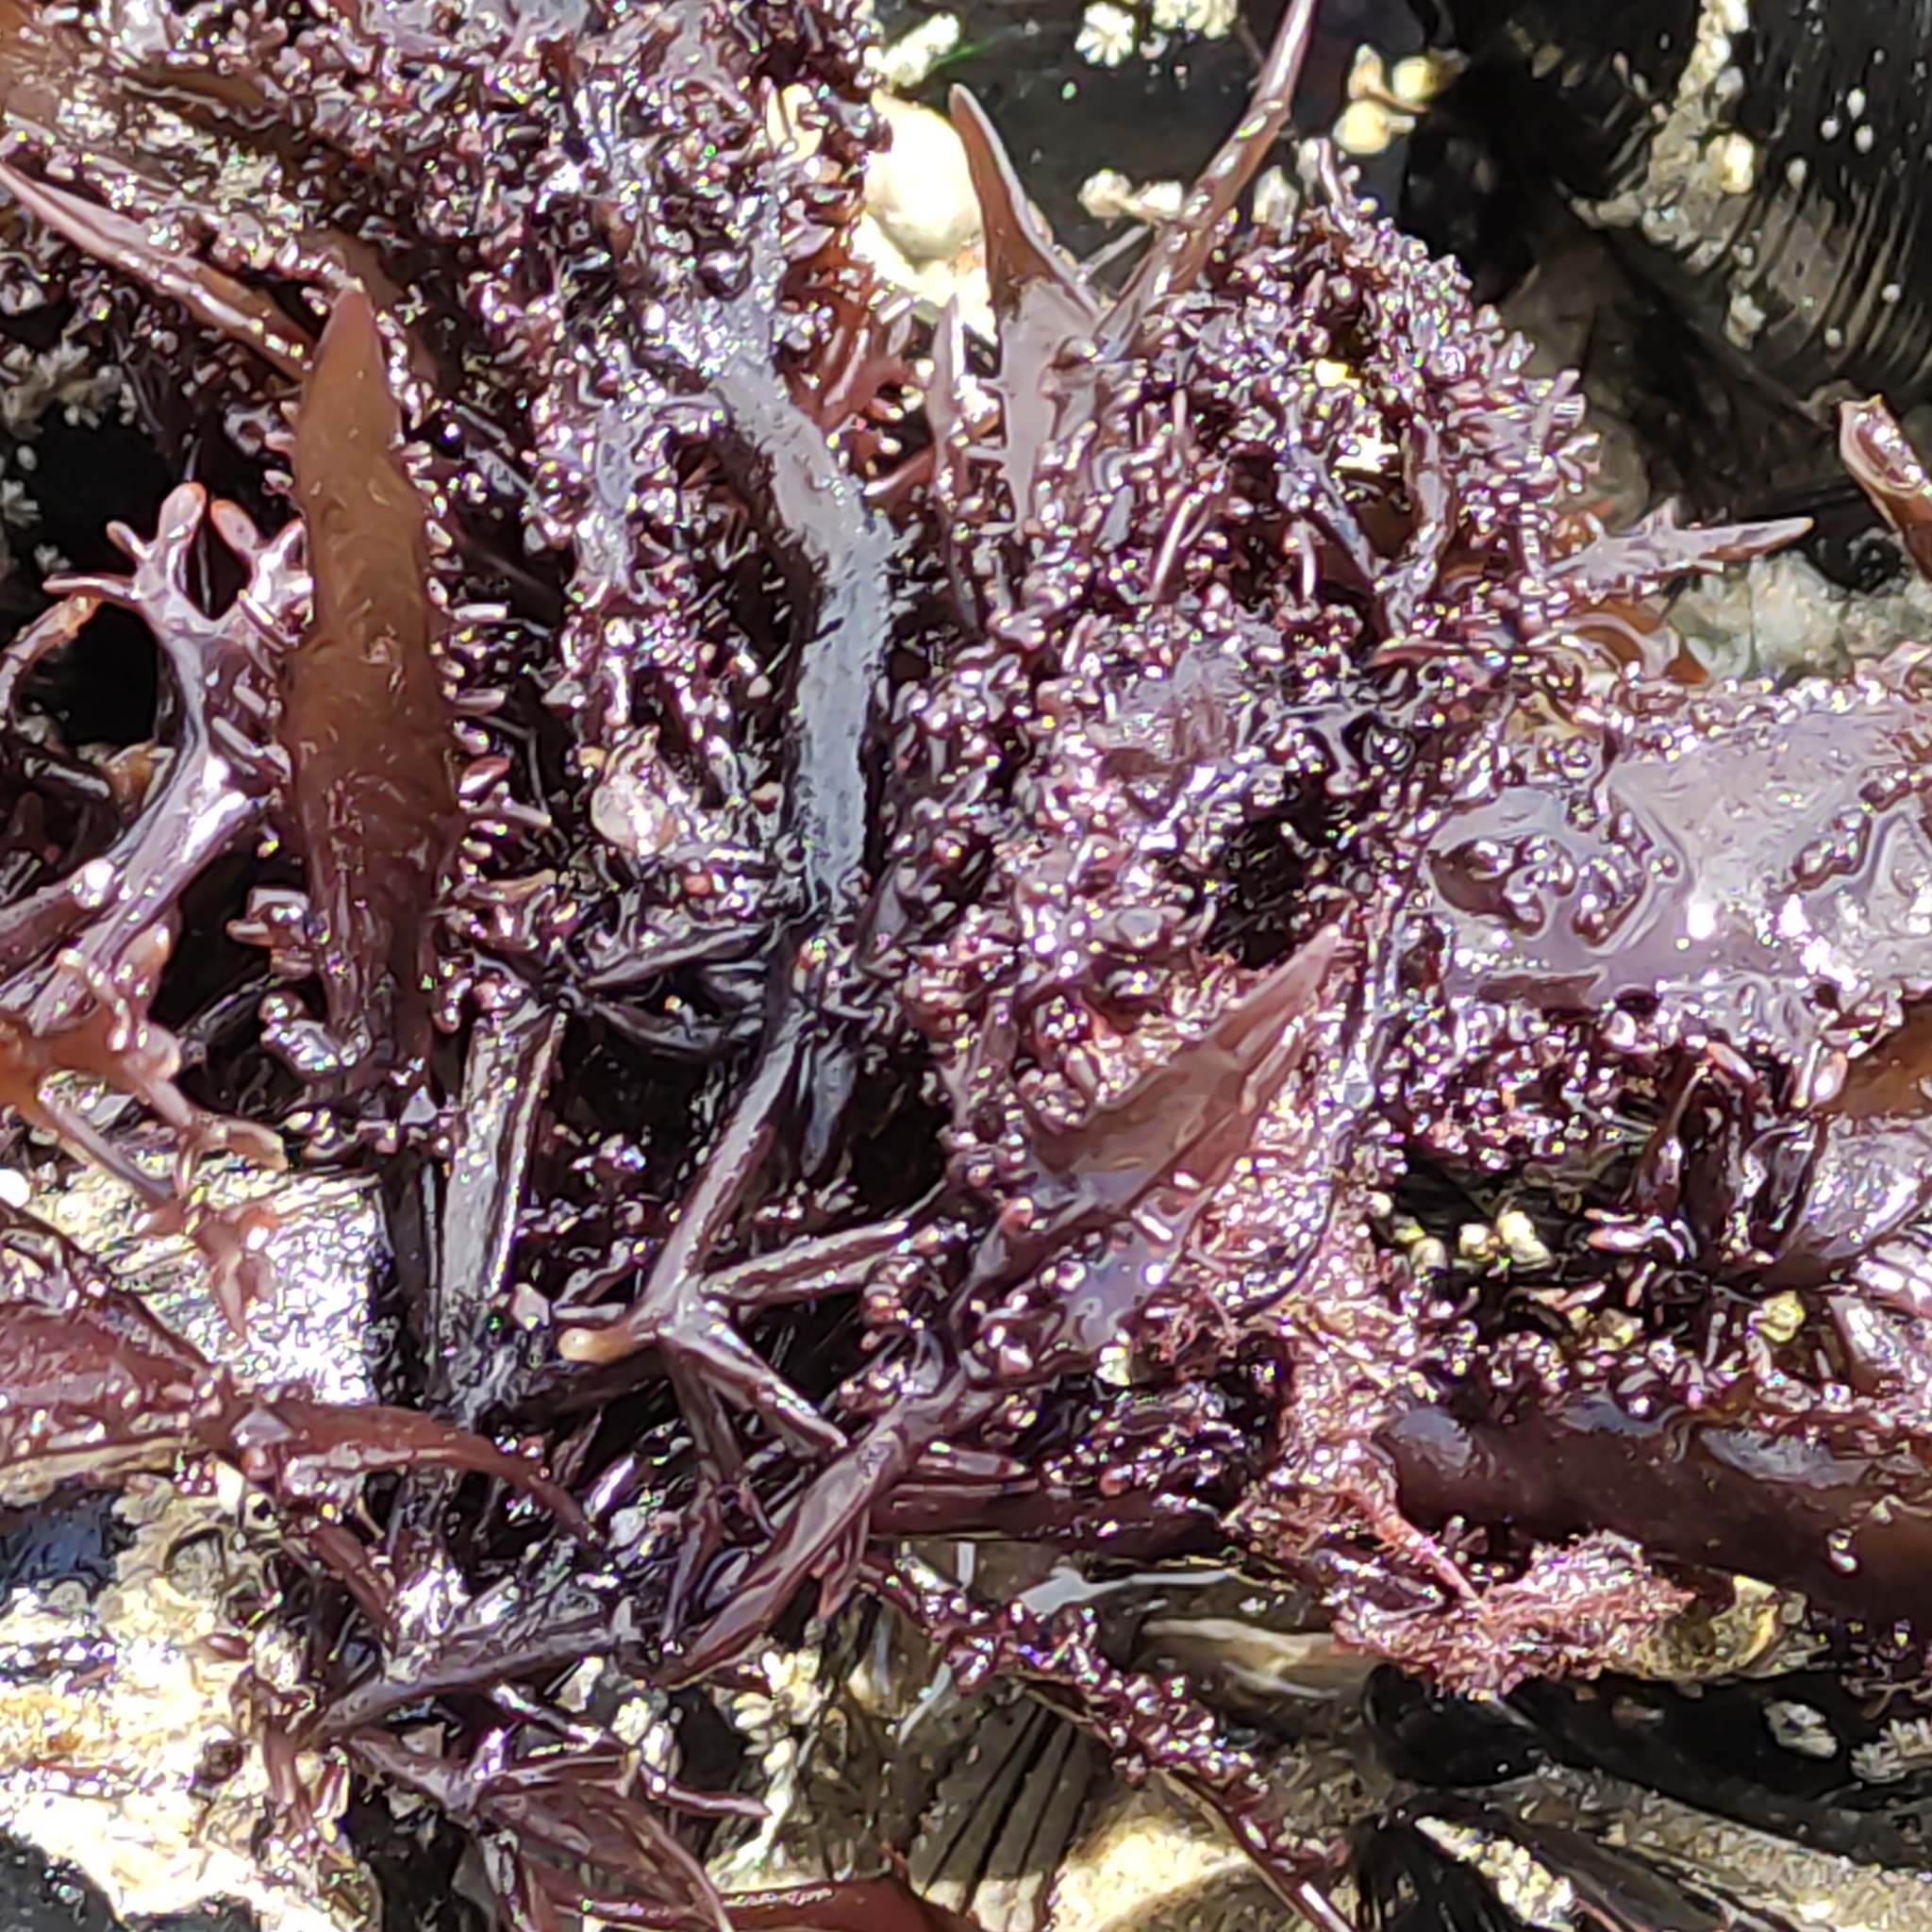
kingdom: Animalia
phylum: Mollusca
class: Bivalvia
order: Mytilida
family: Mytilidae
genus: Perna
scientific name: Perna canaliculus
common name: New zealand greenshelltm
